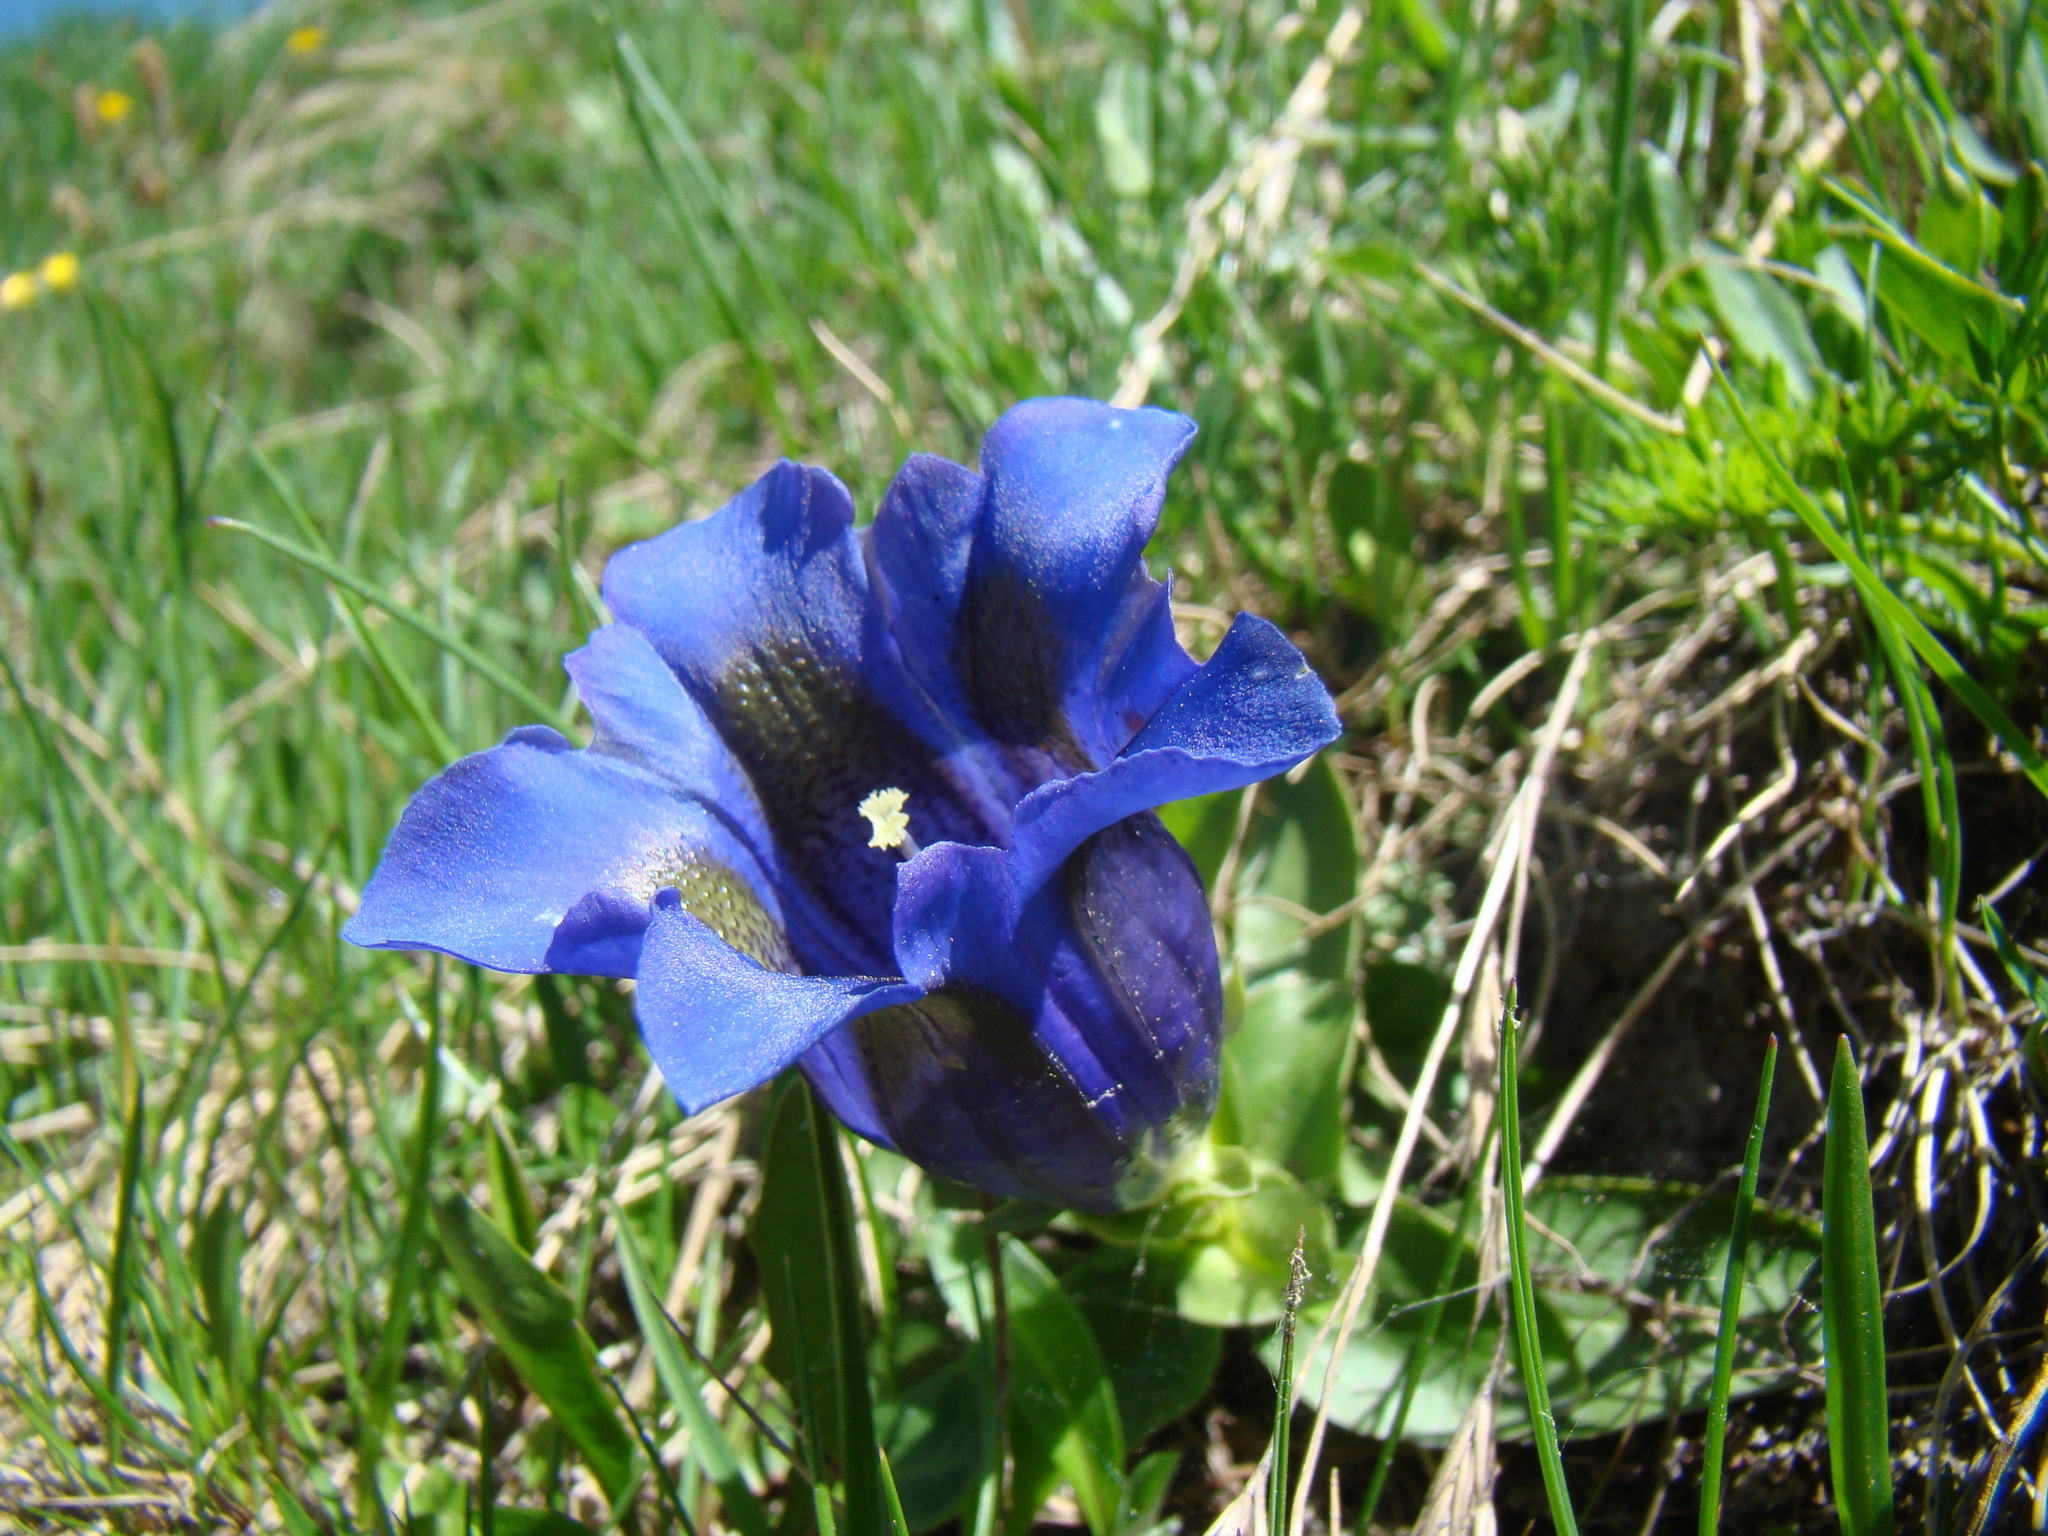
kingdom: Plantae
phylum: Tracheophyta
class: Magnoliopsida
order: Gentianales
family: Gentianaceae
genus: Gentiana
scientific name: Gentiana acaulis
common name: Trumpet gentian
